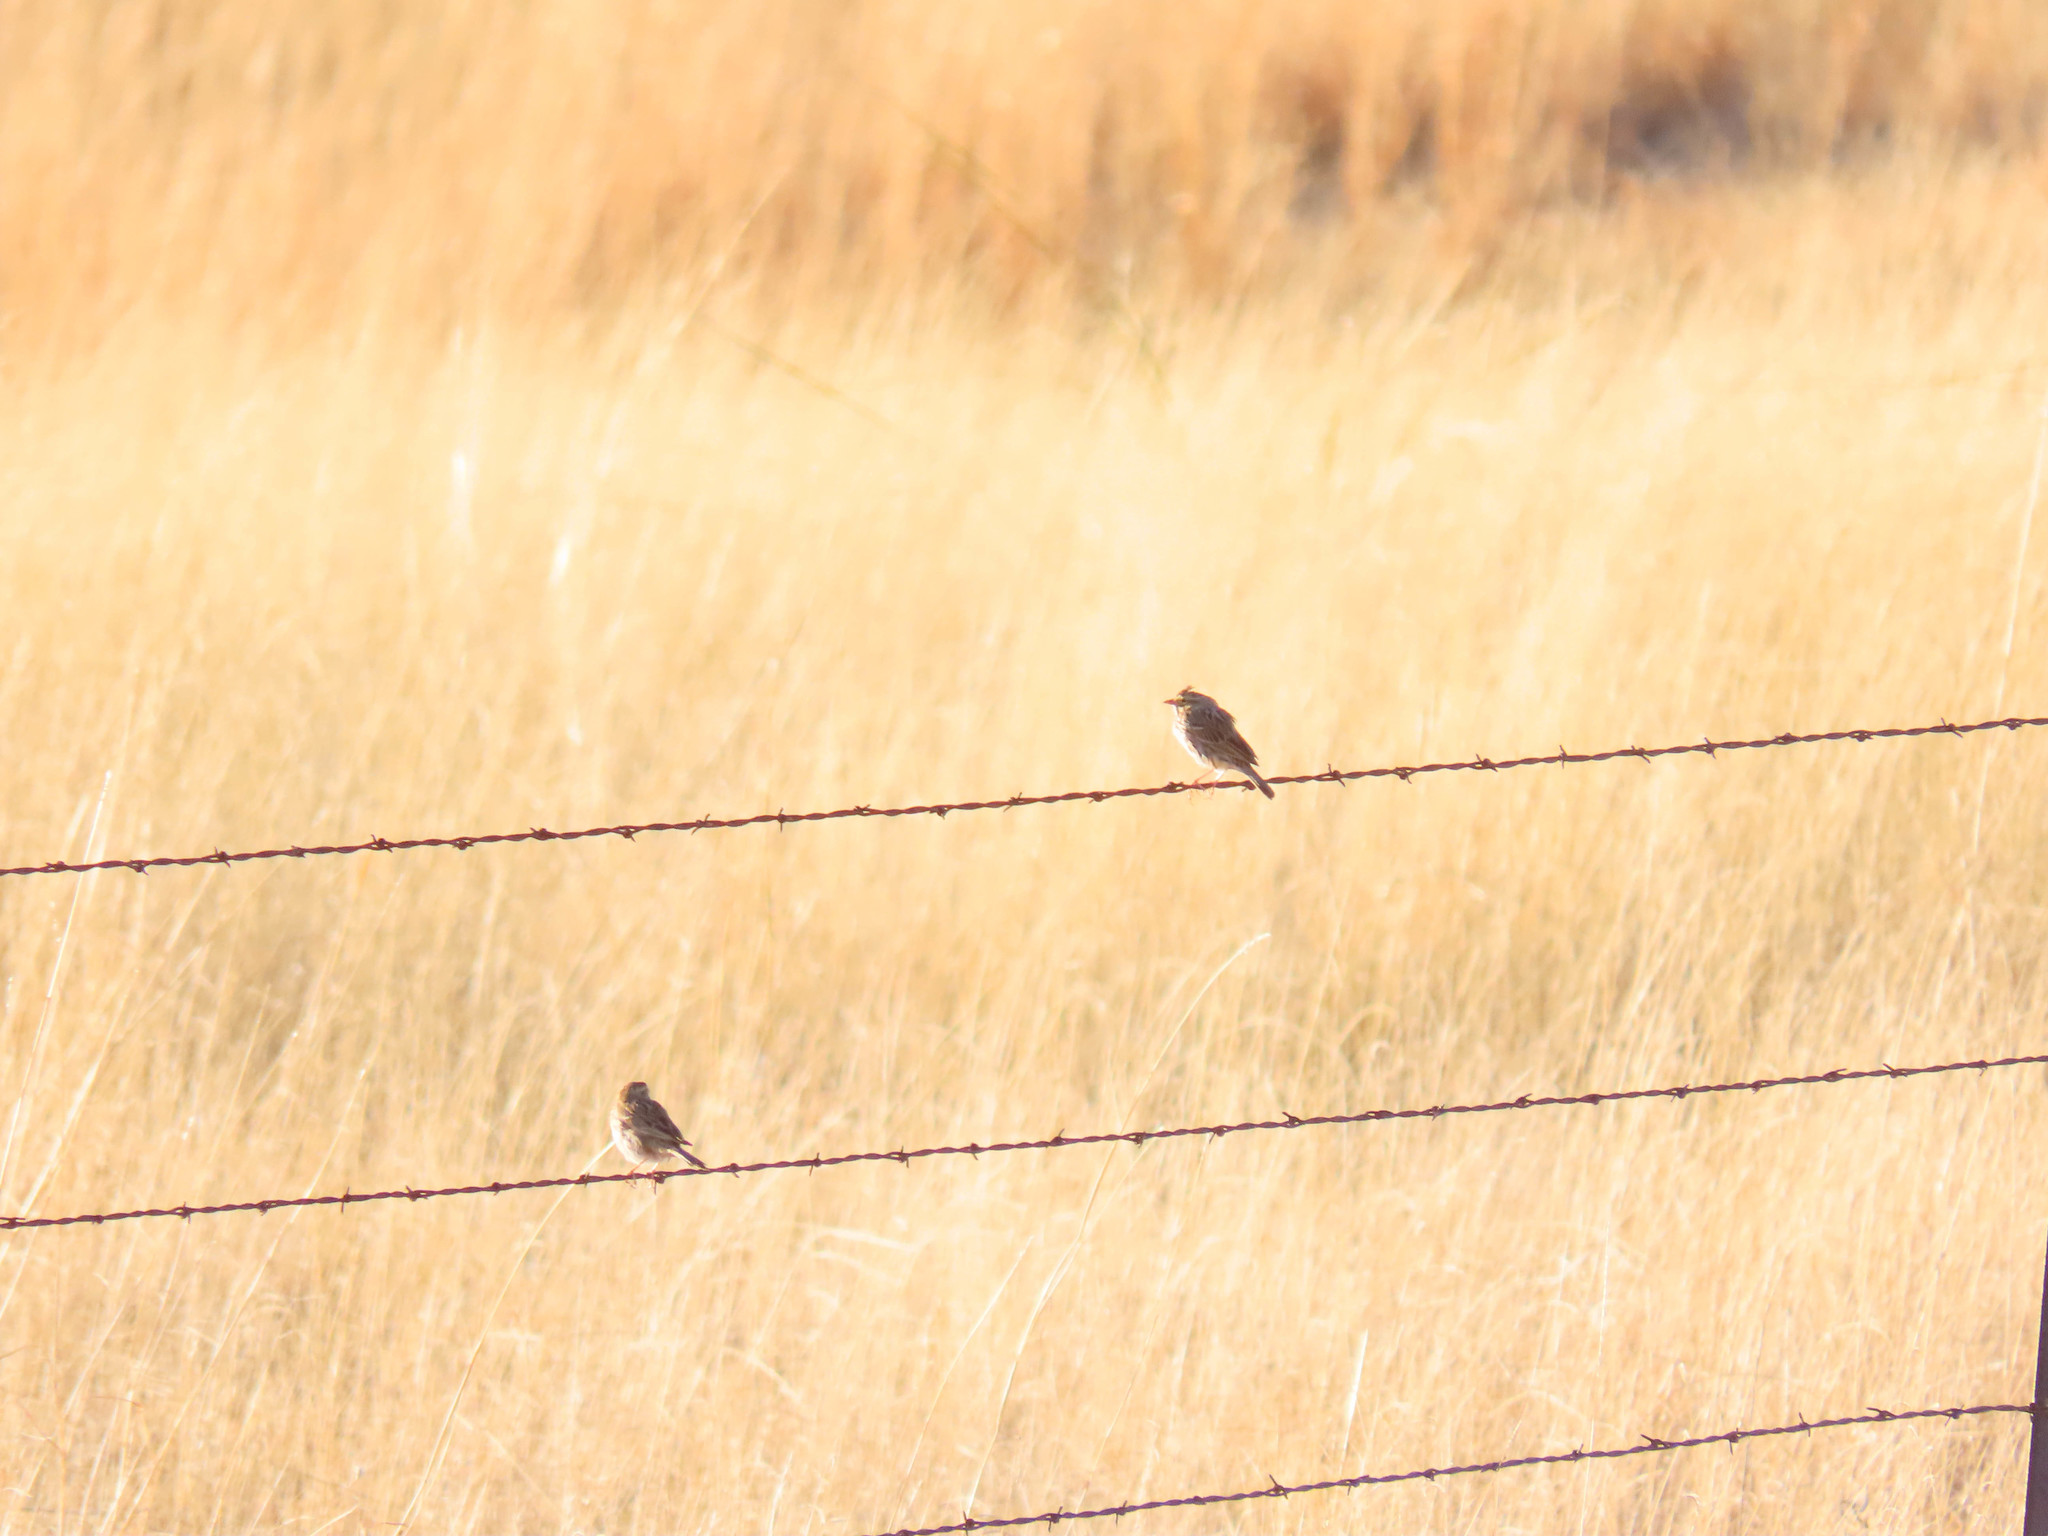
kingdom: Animalia
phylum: Chordata
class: Aves
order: Passeriformes
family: Passerellidae
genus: Passerculus
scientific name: Passerculus sandwichensis
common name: Savannah sparrow
